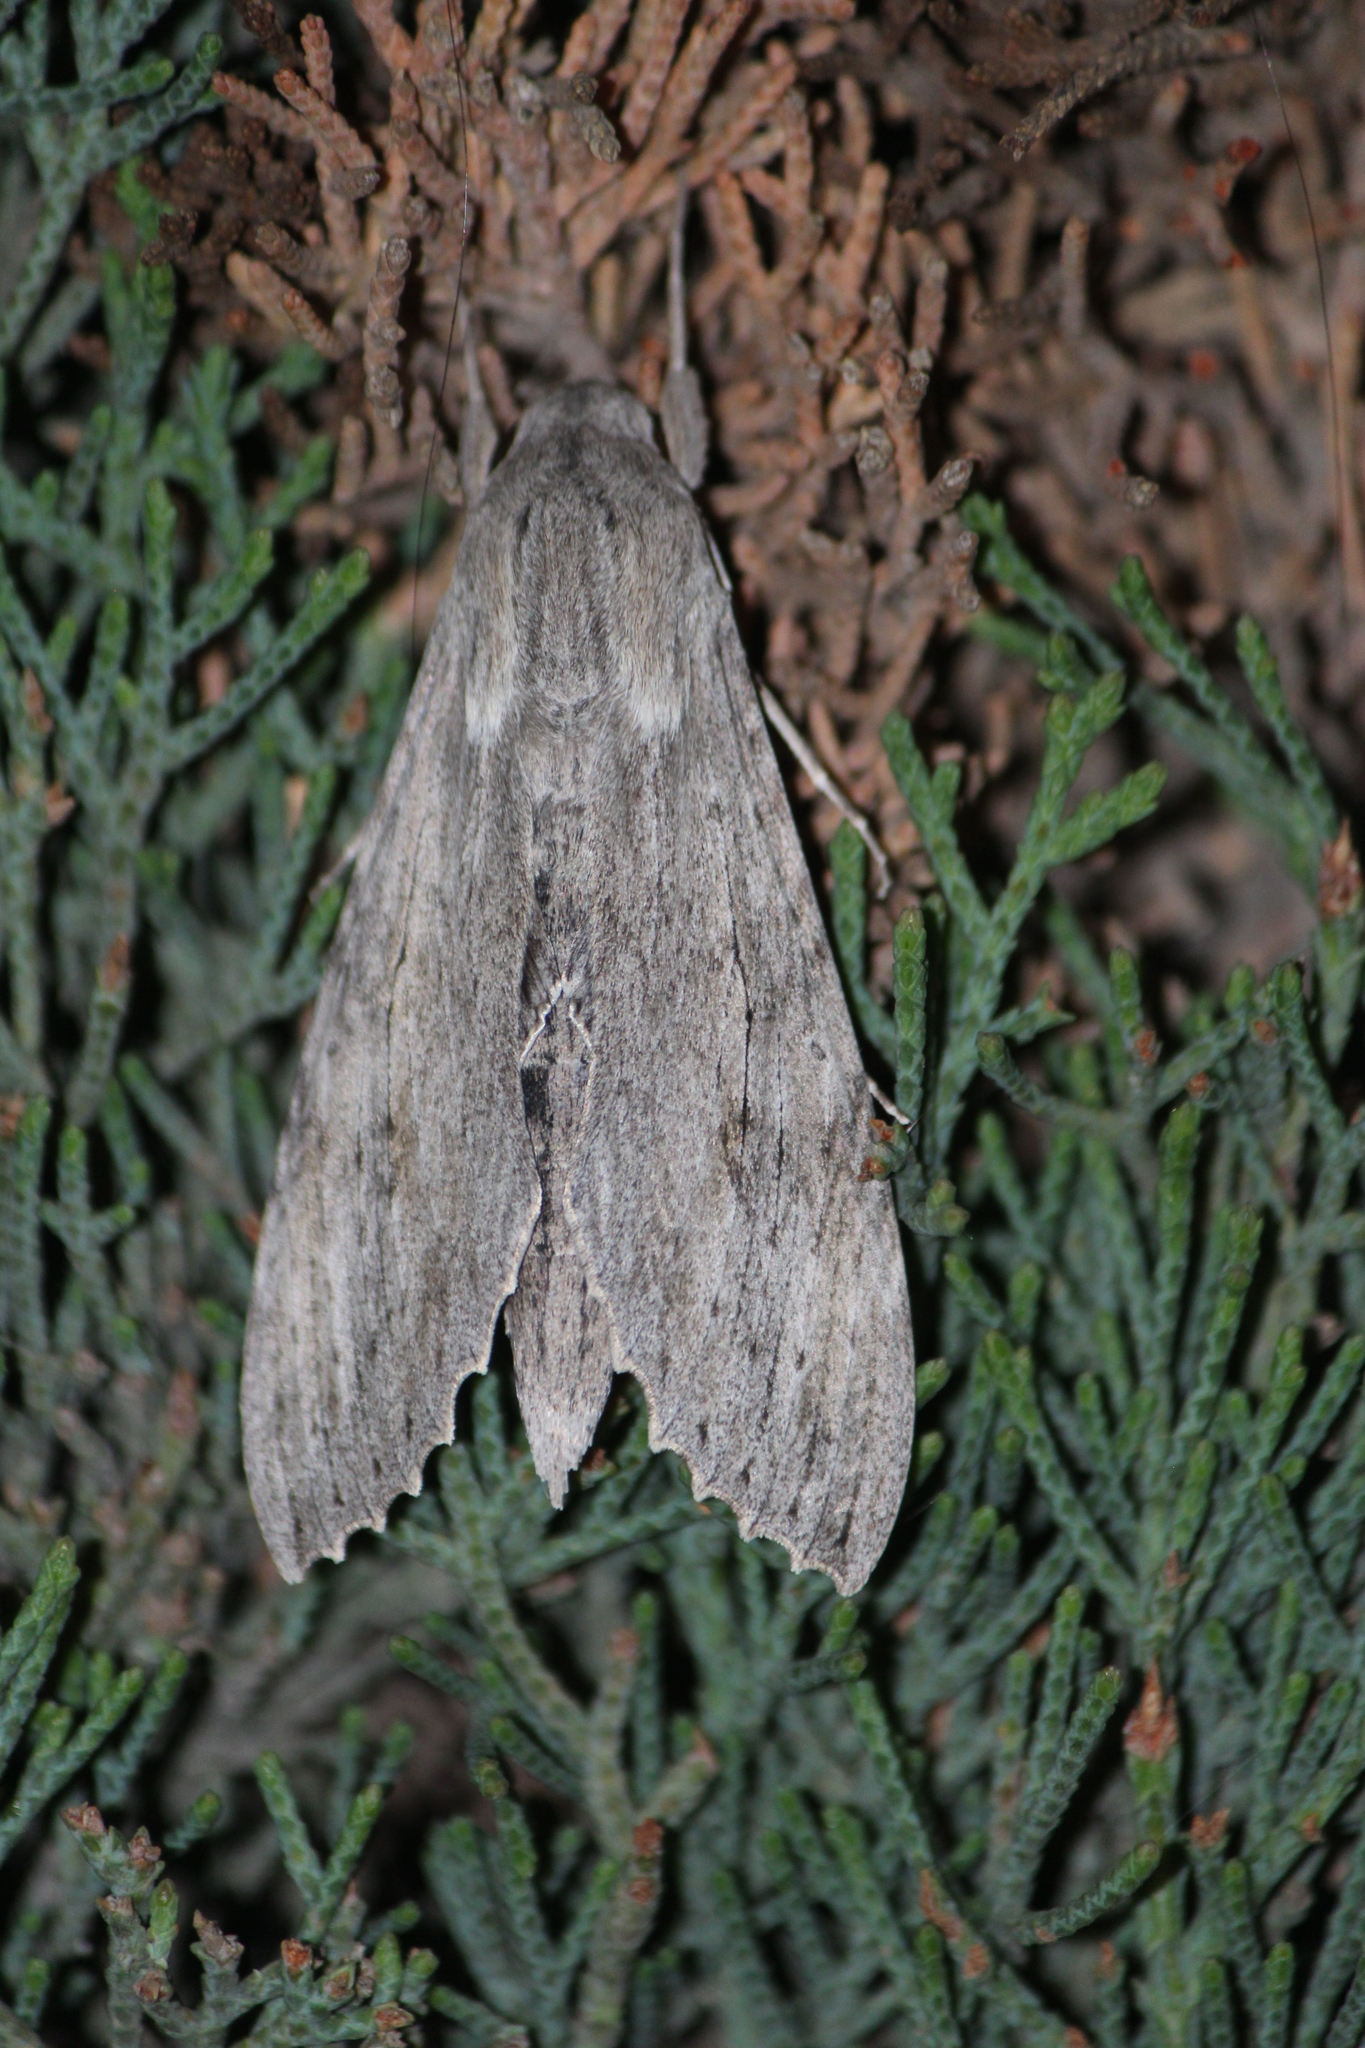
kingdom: Animalia
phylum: Arthropoda
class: Insecta
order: Lepidoptera
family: Sphingidae
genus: Erinnyis
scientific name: Erinnyis ello
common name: Ello sphinx
